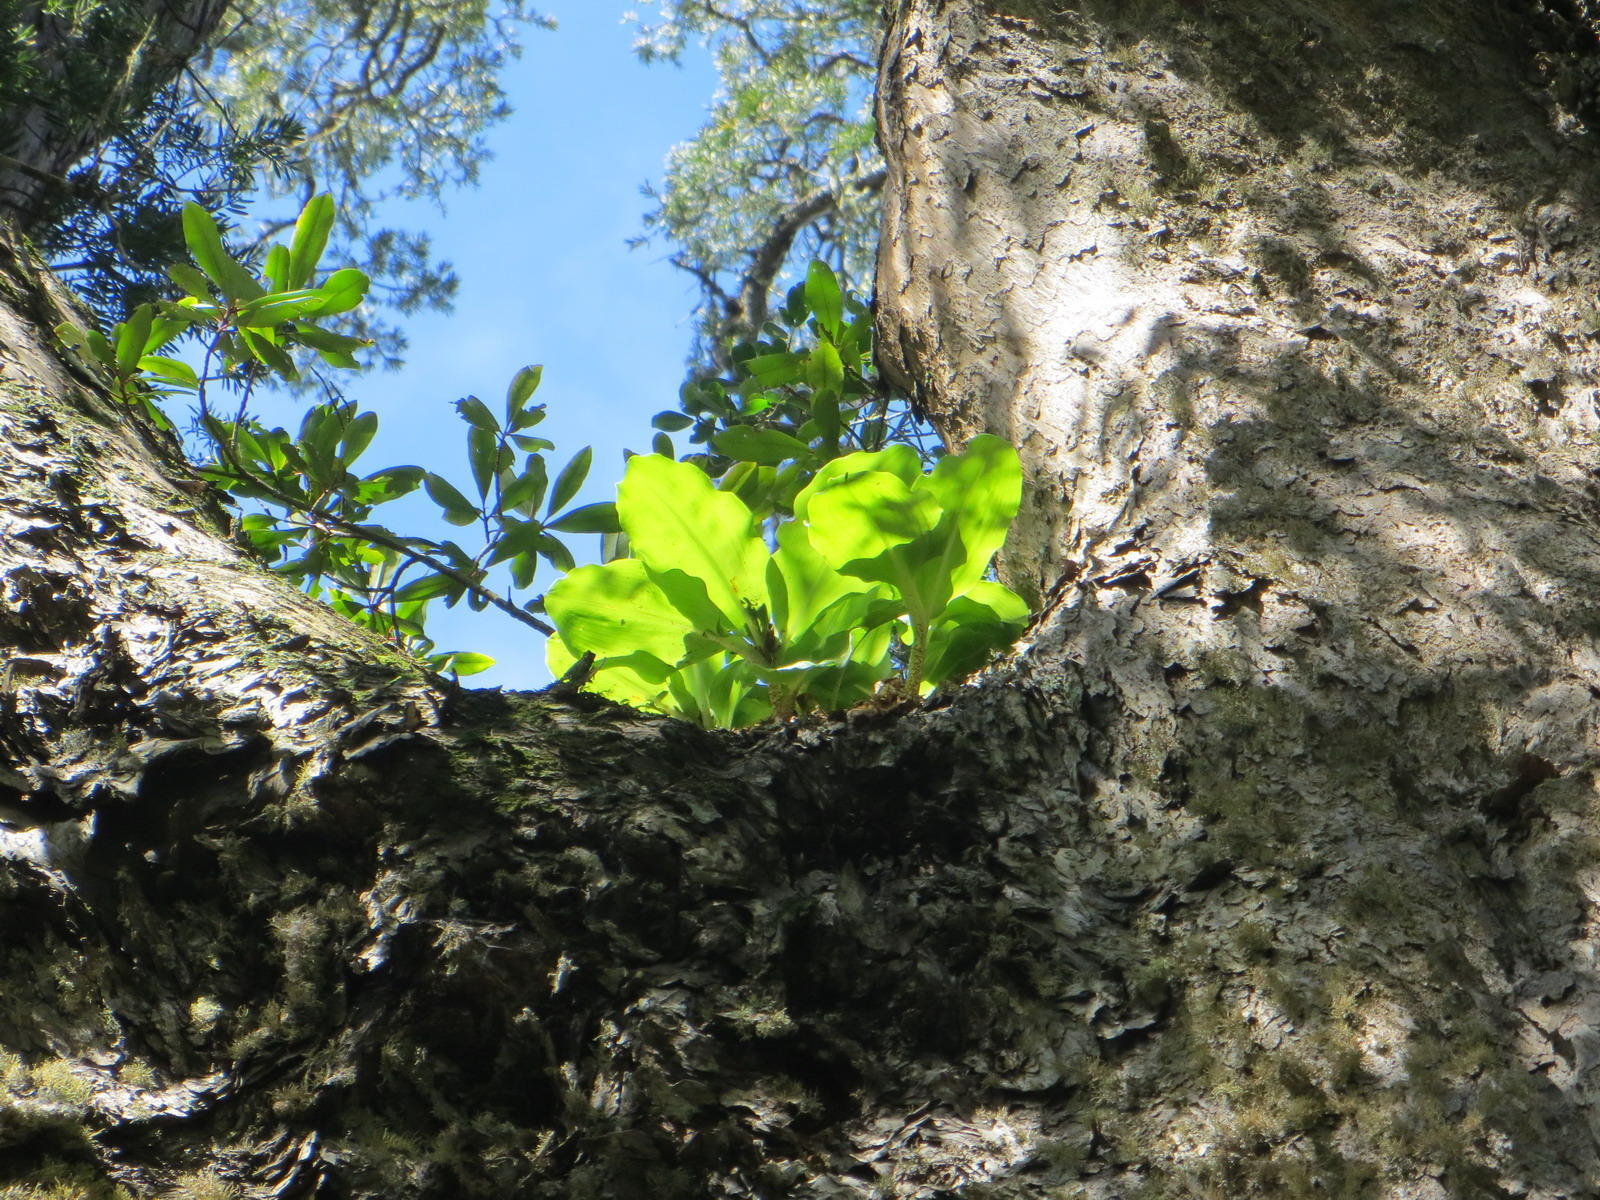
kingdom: Plantae
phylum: Tracheophyta
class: Liliopsida
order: Asparagales
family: Amaryllidaceae
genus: Scadoxus
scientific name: Scadoxus puniceus
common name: Royal-paintbrush
